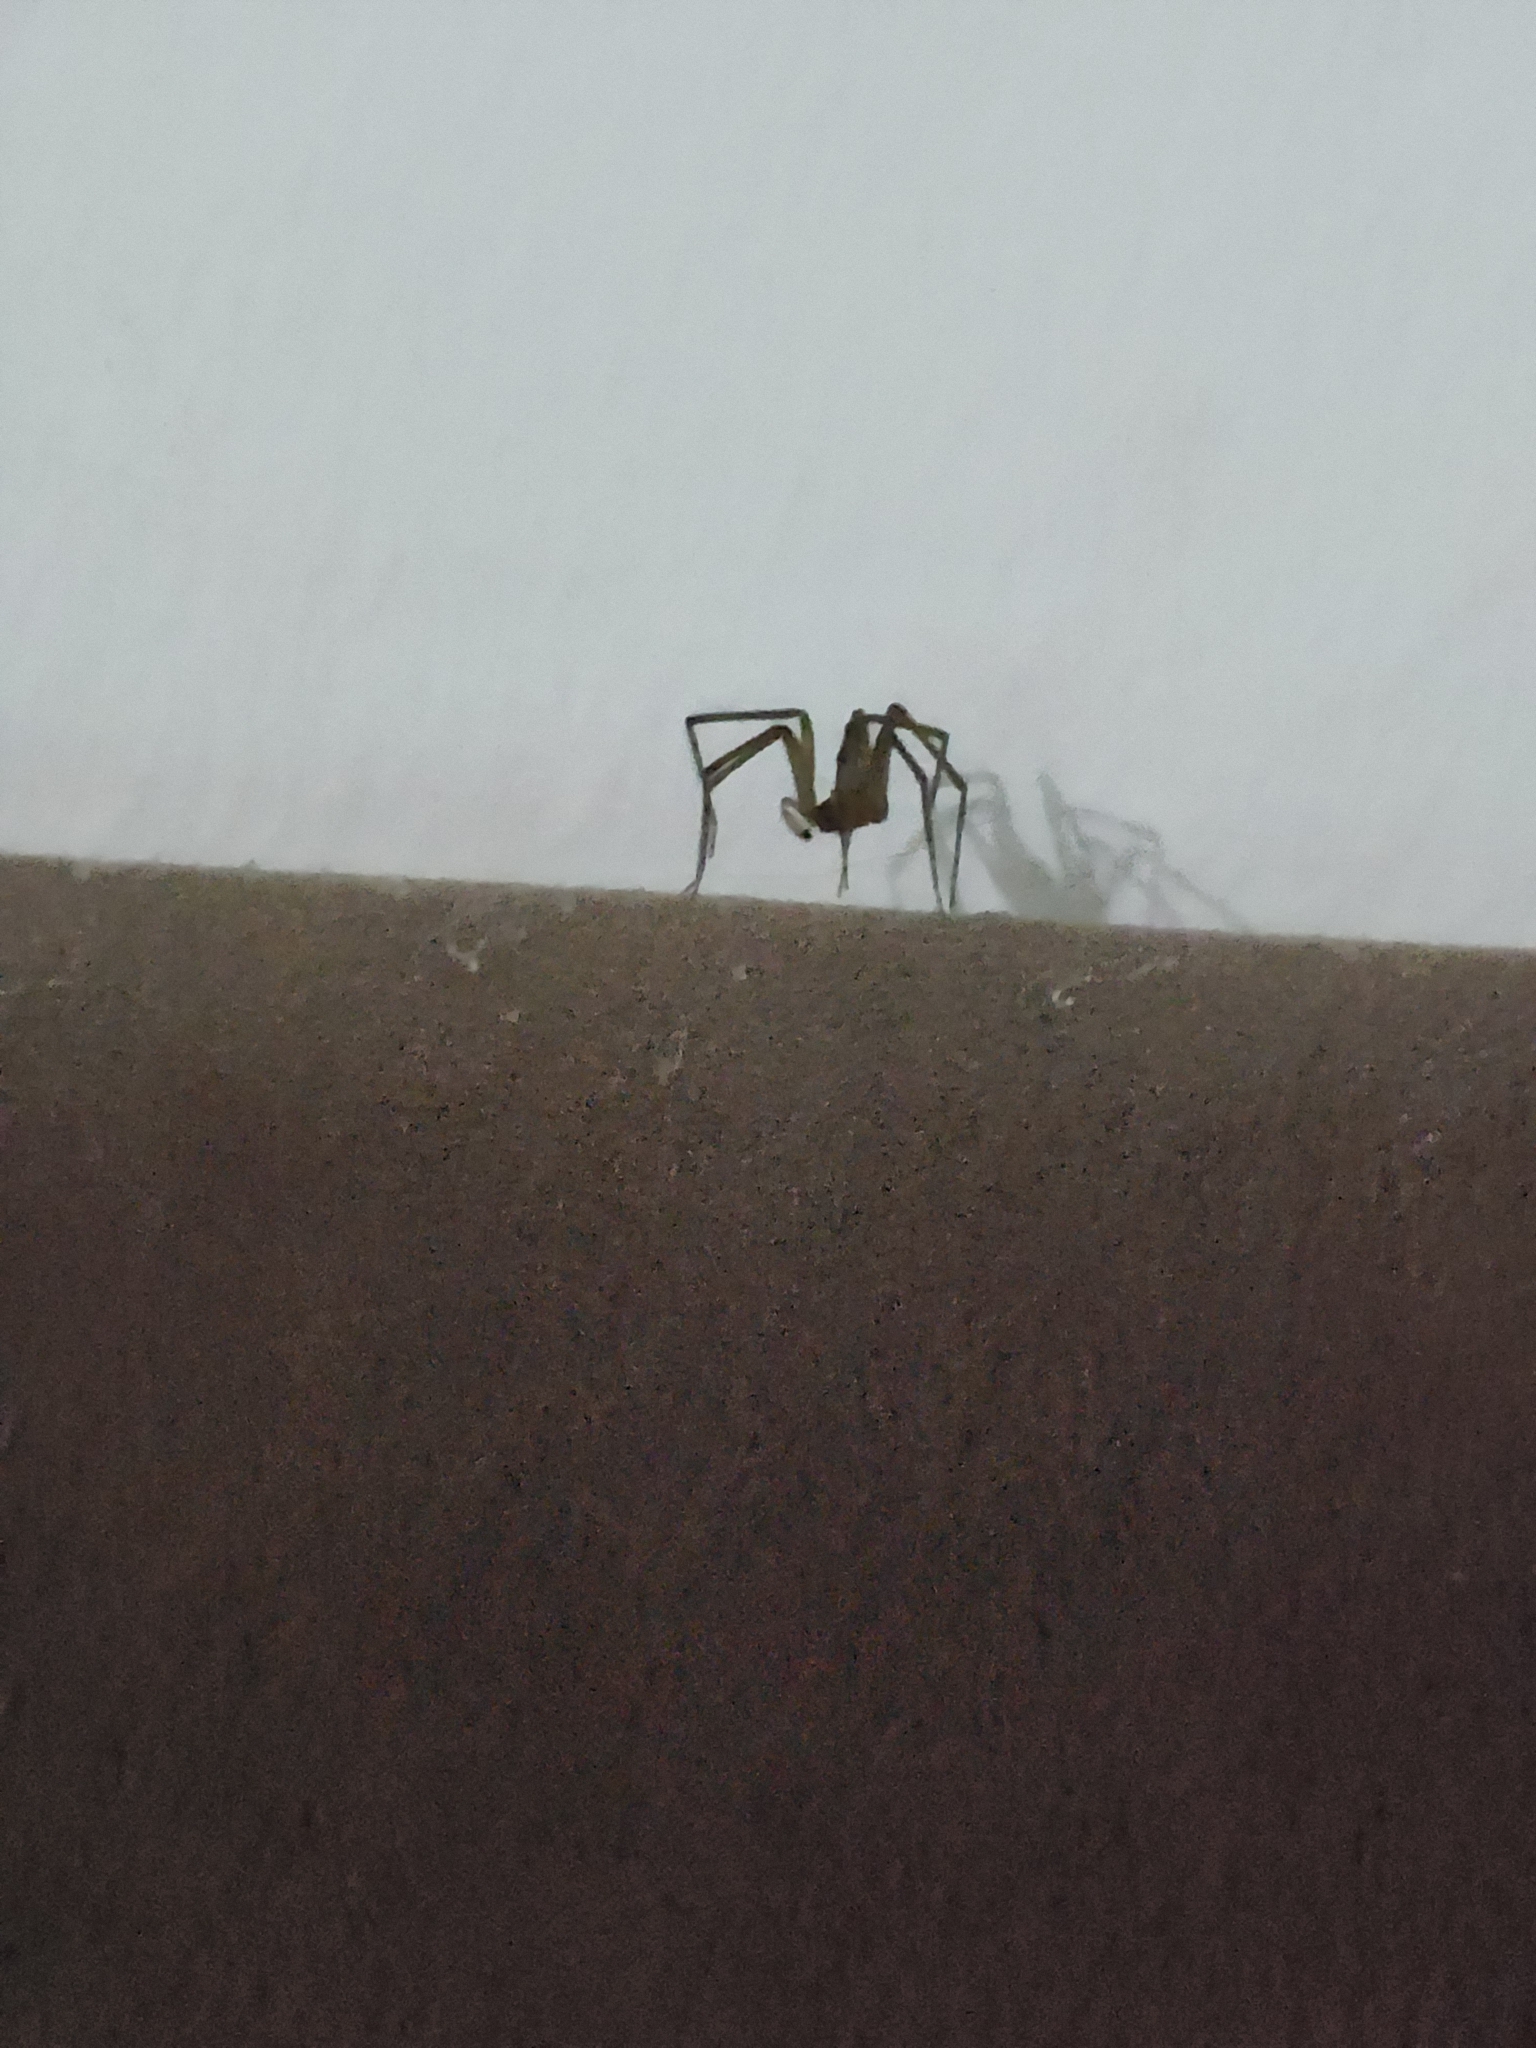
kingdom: Animalia
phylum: Arthropoda
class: Arachnida
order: Araneae
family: Sicariidae
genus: Loxosceles
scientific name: Loxosceles laeta
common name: Chilean recluse spider
